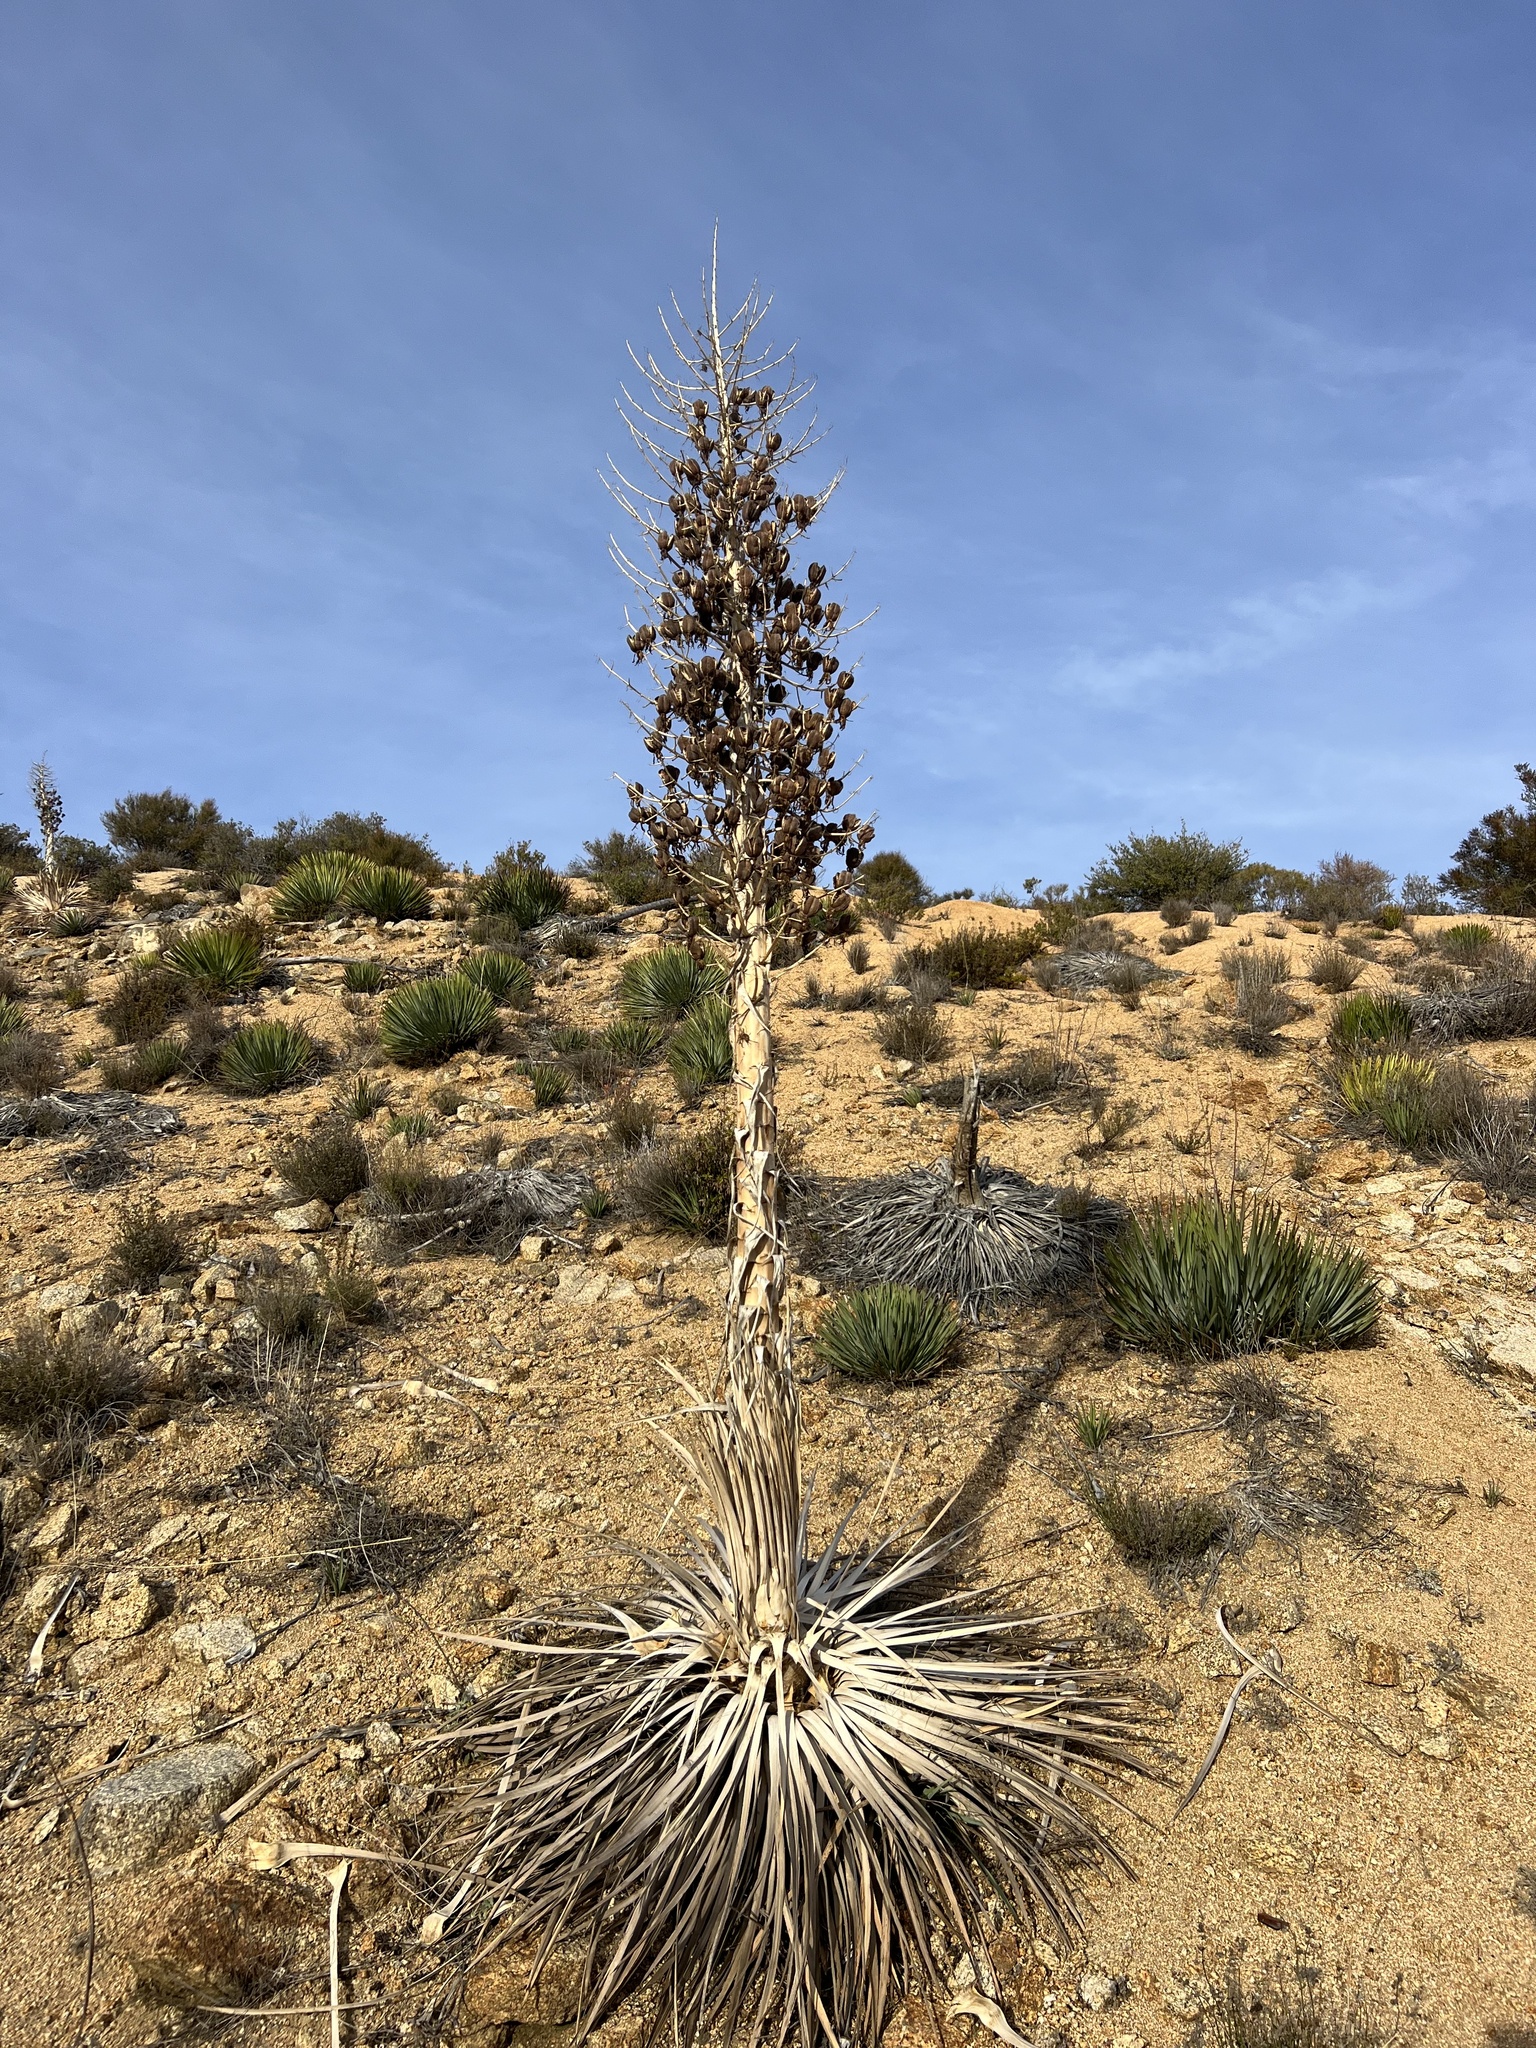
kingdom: Plantae
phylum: Tracheophyta
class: Liliopsida
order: Asparagales
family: Asparagaceae
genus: Hesperoyucca
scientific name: Hesperoyucca whipplei
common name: Our lord's-candle
